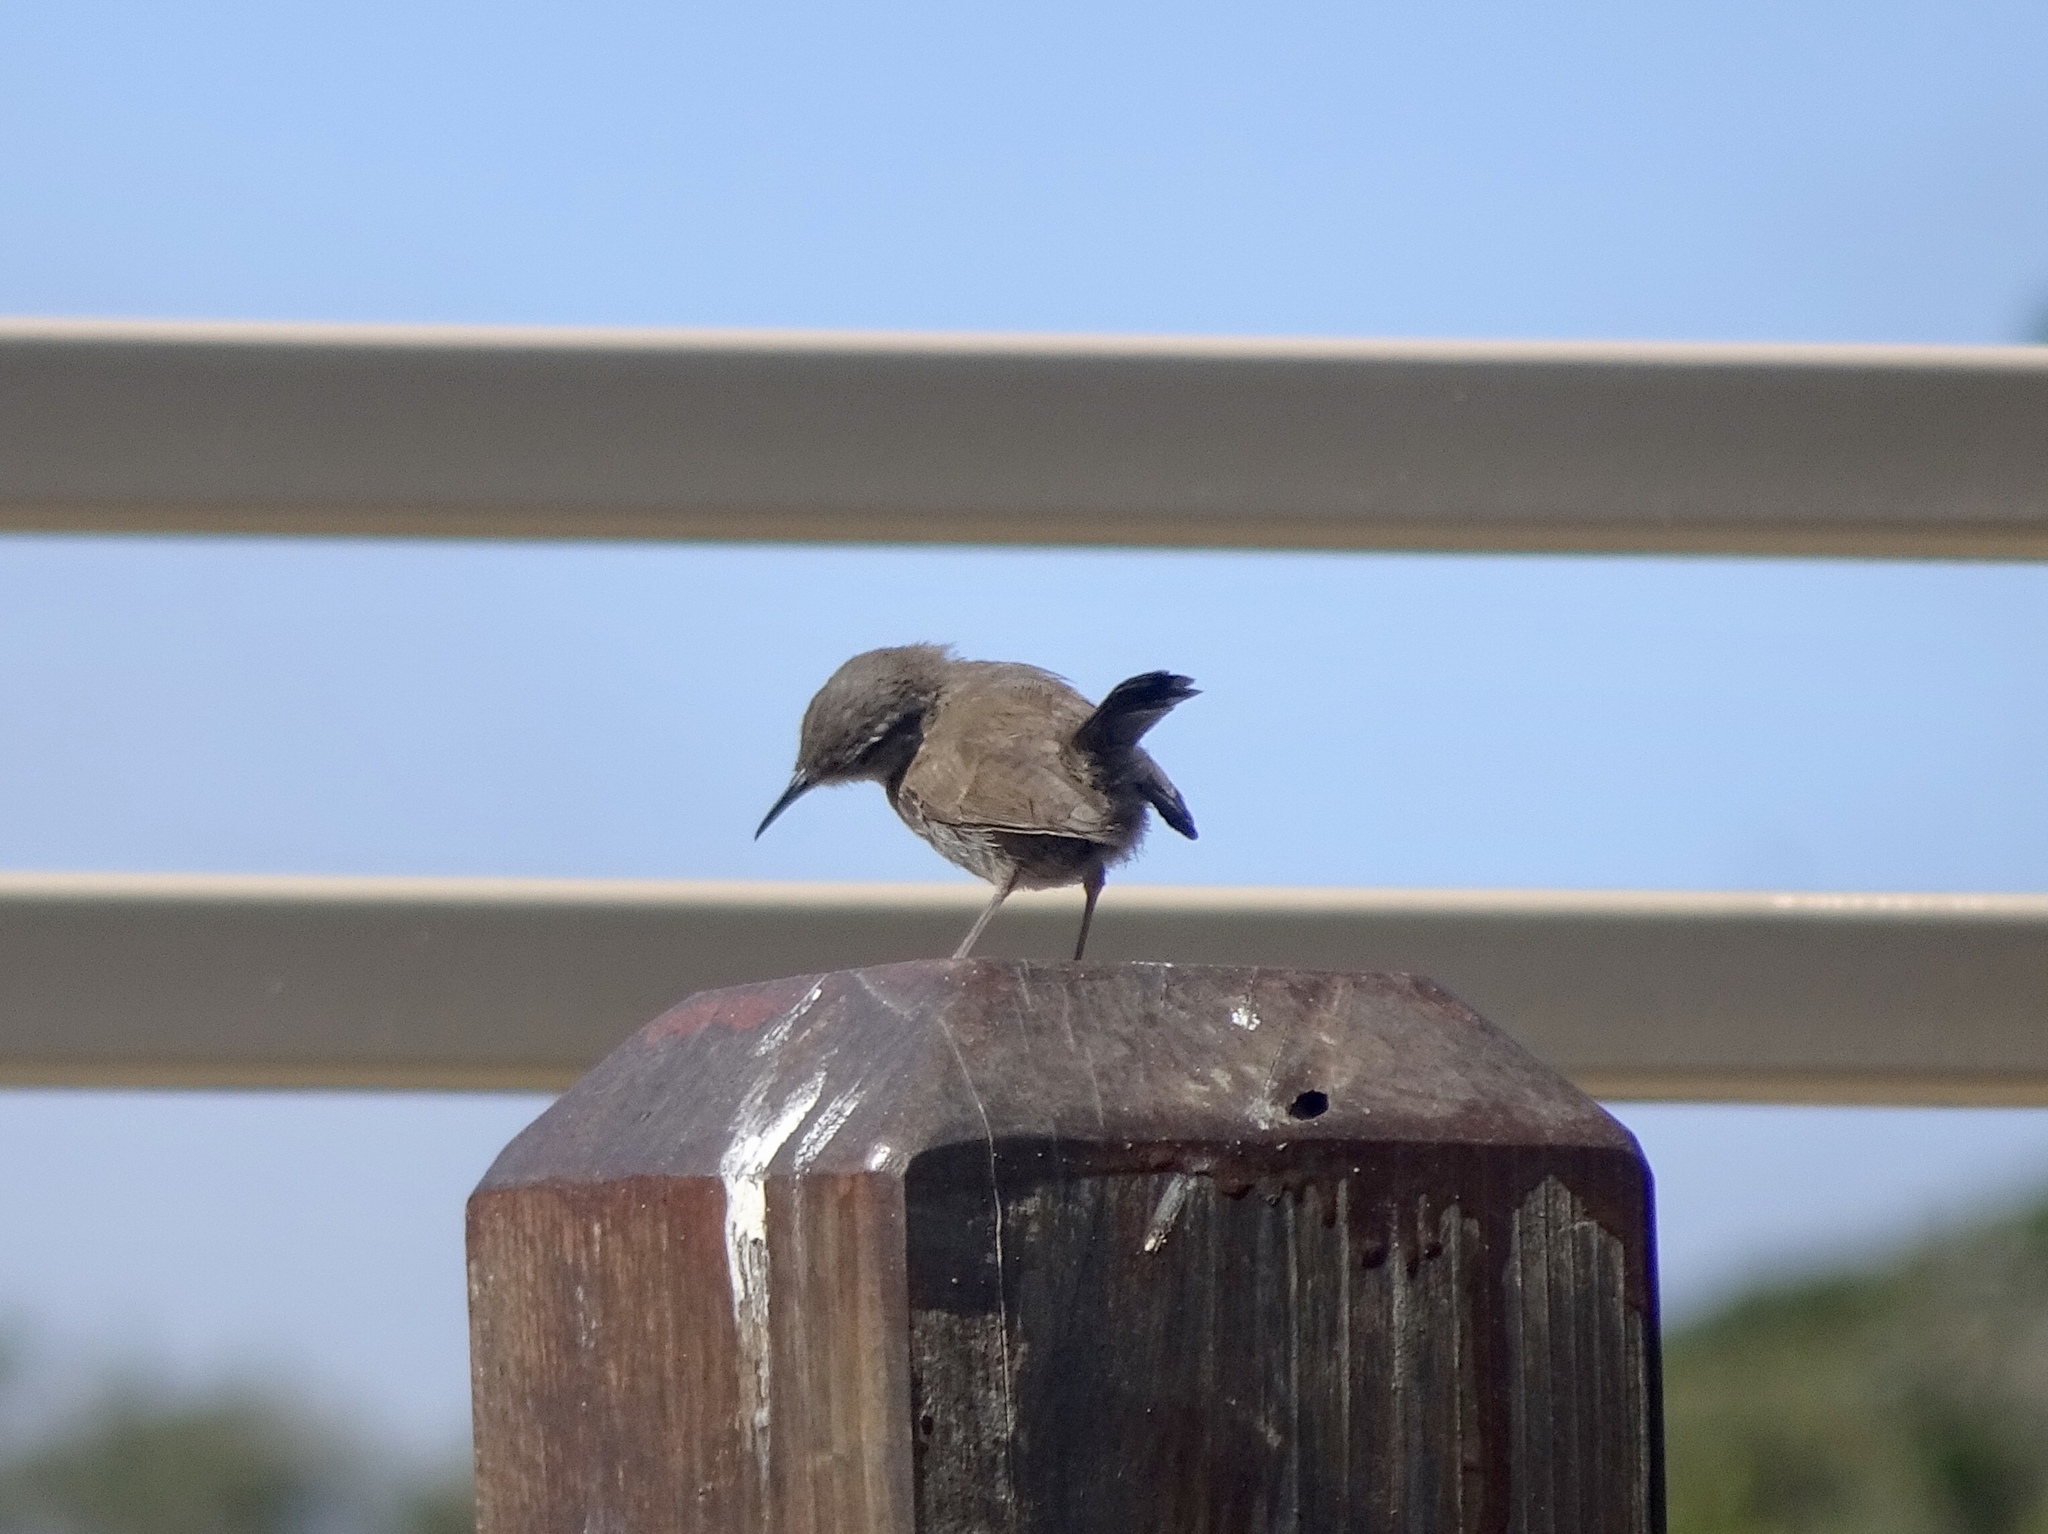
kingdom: Animalia
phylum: Chordata
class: Aves
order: Passeriformes
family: Troglodytidae
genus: Thryomanes
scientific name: Thryomanes bewickii
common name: Bewick's wren
